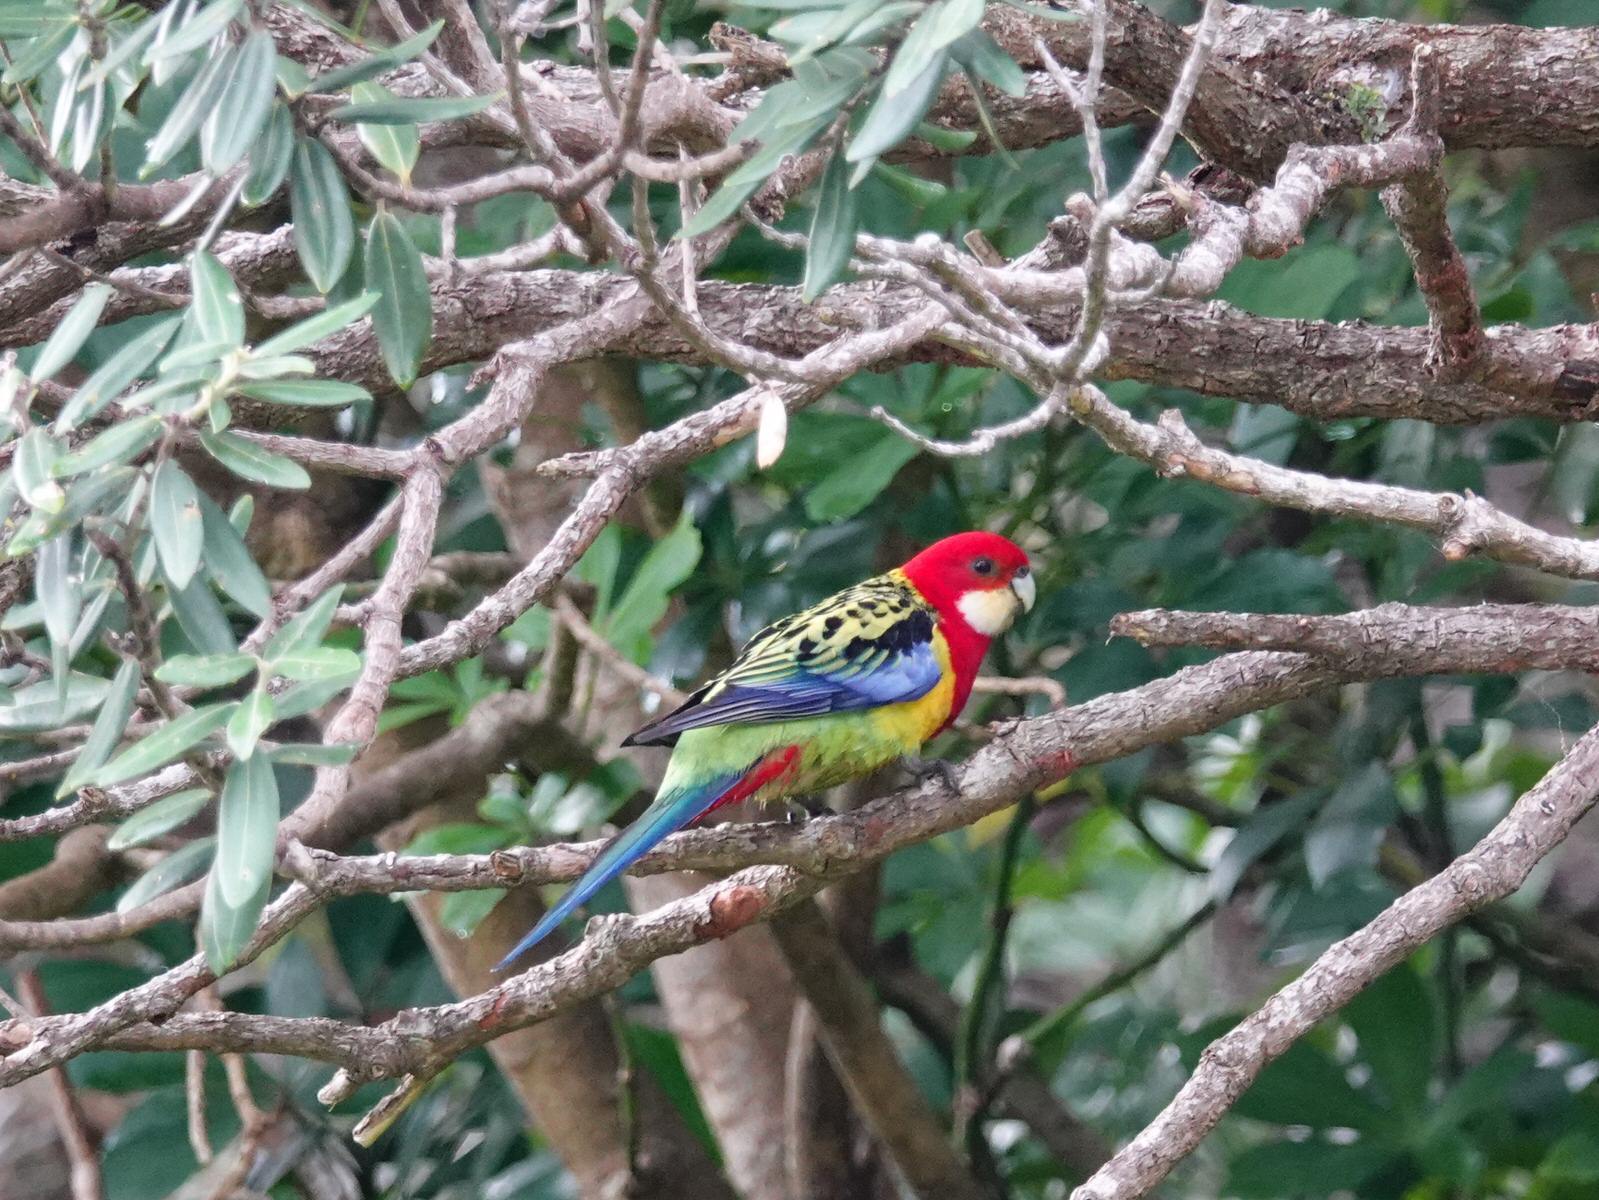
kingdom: Animalia
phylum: Chordata
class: Aves
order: Psittaciformes
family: Psittacidae
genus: Platycercus
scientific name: Platycercus eximius
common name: Eastern rosella
